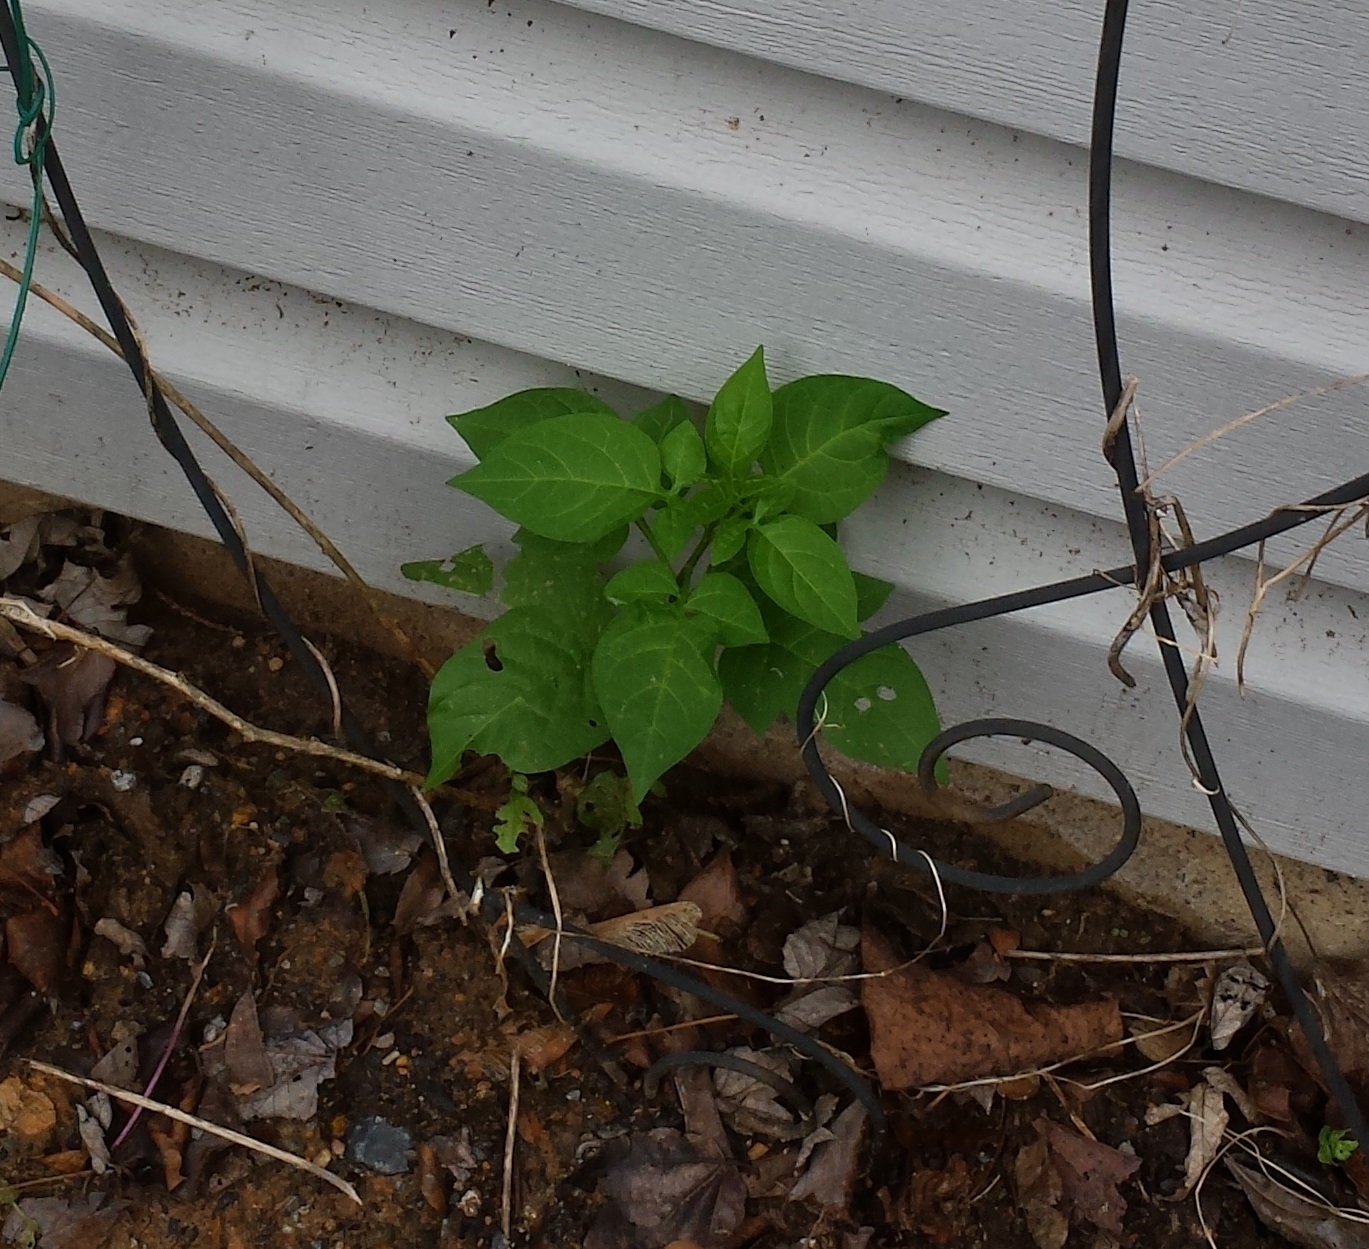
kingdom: Plantae
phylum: Tracheophyta
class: Magnoliopsida
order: Solanales
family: Solanaceae
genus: Solanum
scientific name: Solanum dulcamara
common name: Climbing nightshade
